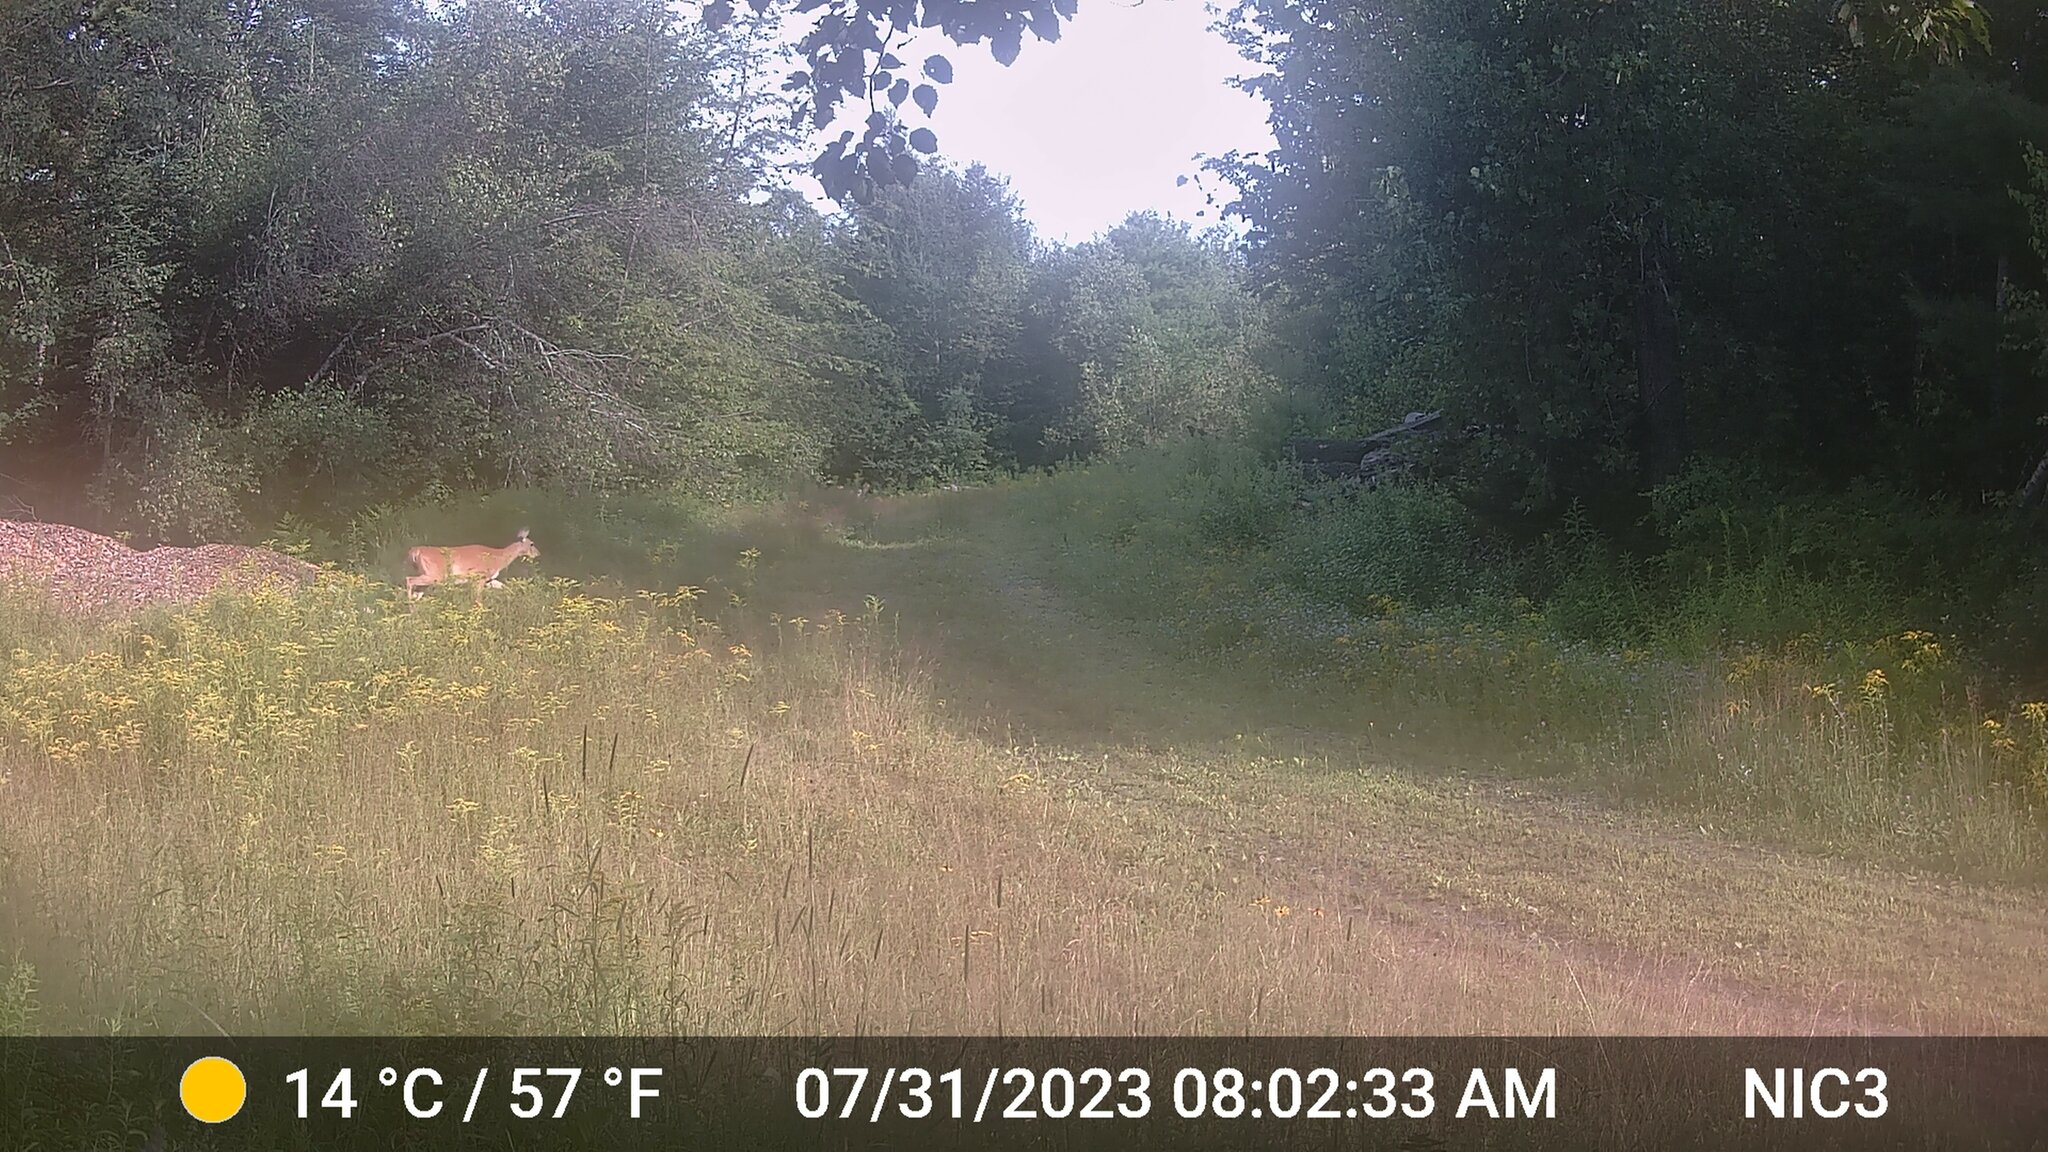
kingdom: Animalia
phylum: Chordata
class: Mammalia
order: Artiodactyla
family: Cervidae
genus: Odocoileus
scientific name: Odocoileus virginianus
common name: White-tailed deer
